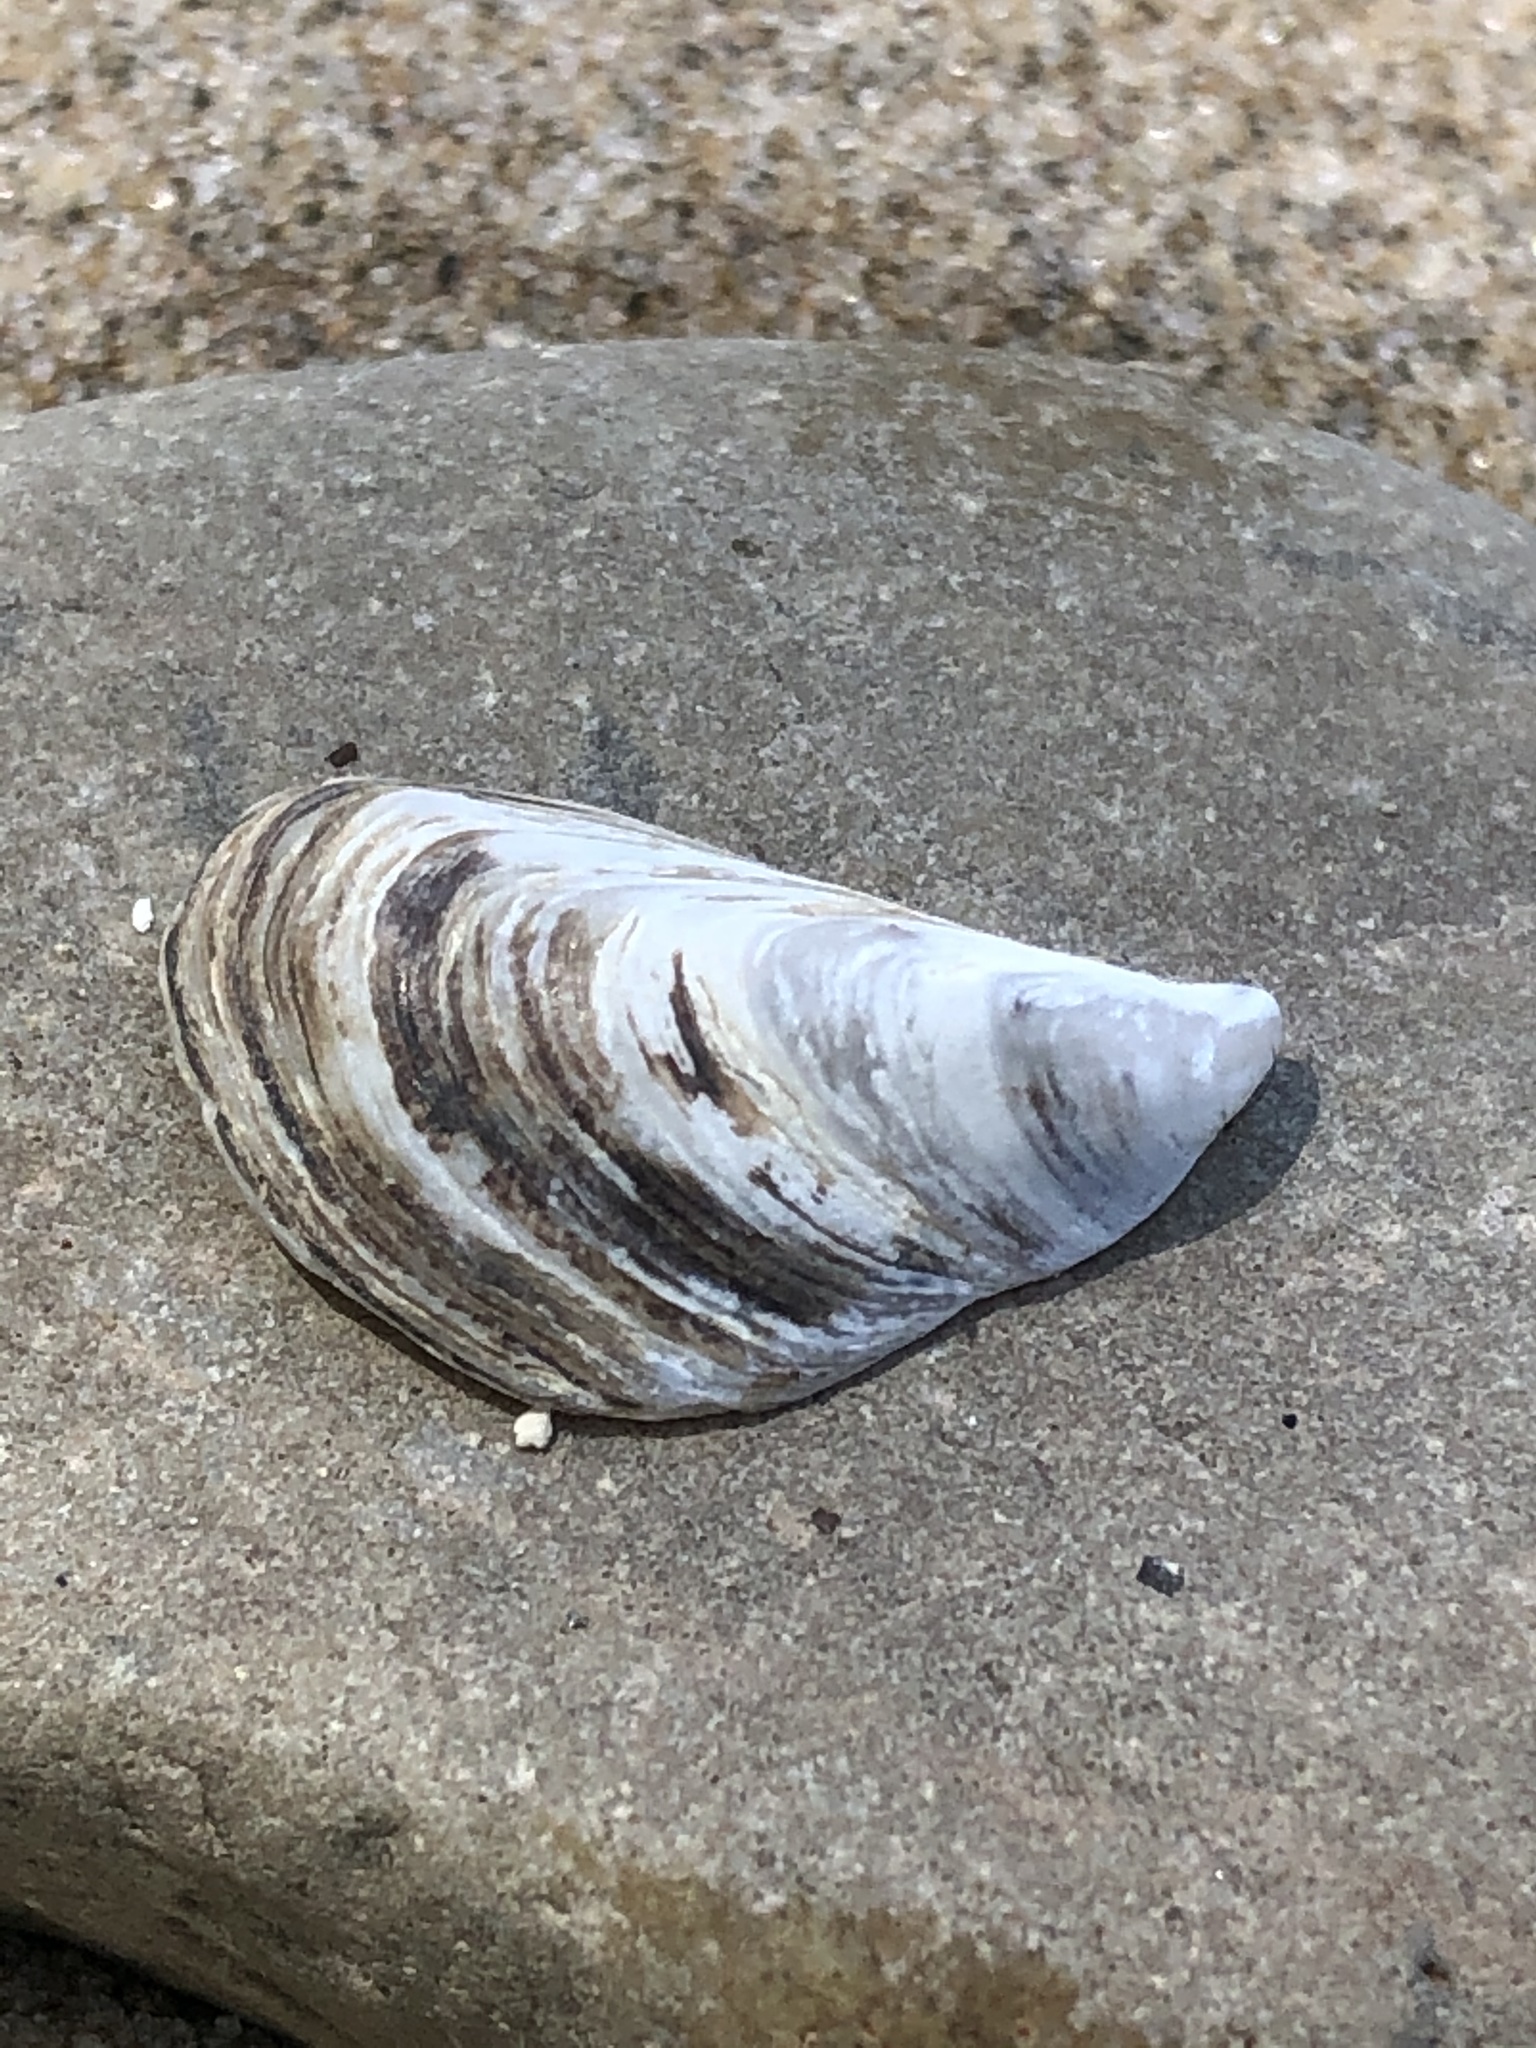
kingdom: Animalia
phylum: Mollusca
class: Bivalvia
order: Myida
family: Dreissenidae
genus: Dreissena
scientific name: Dreissena bugensis
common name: Quagga mussel
